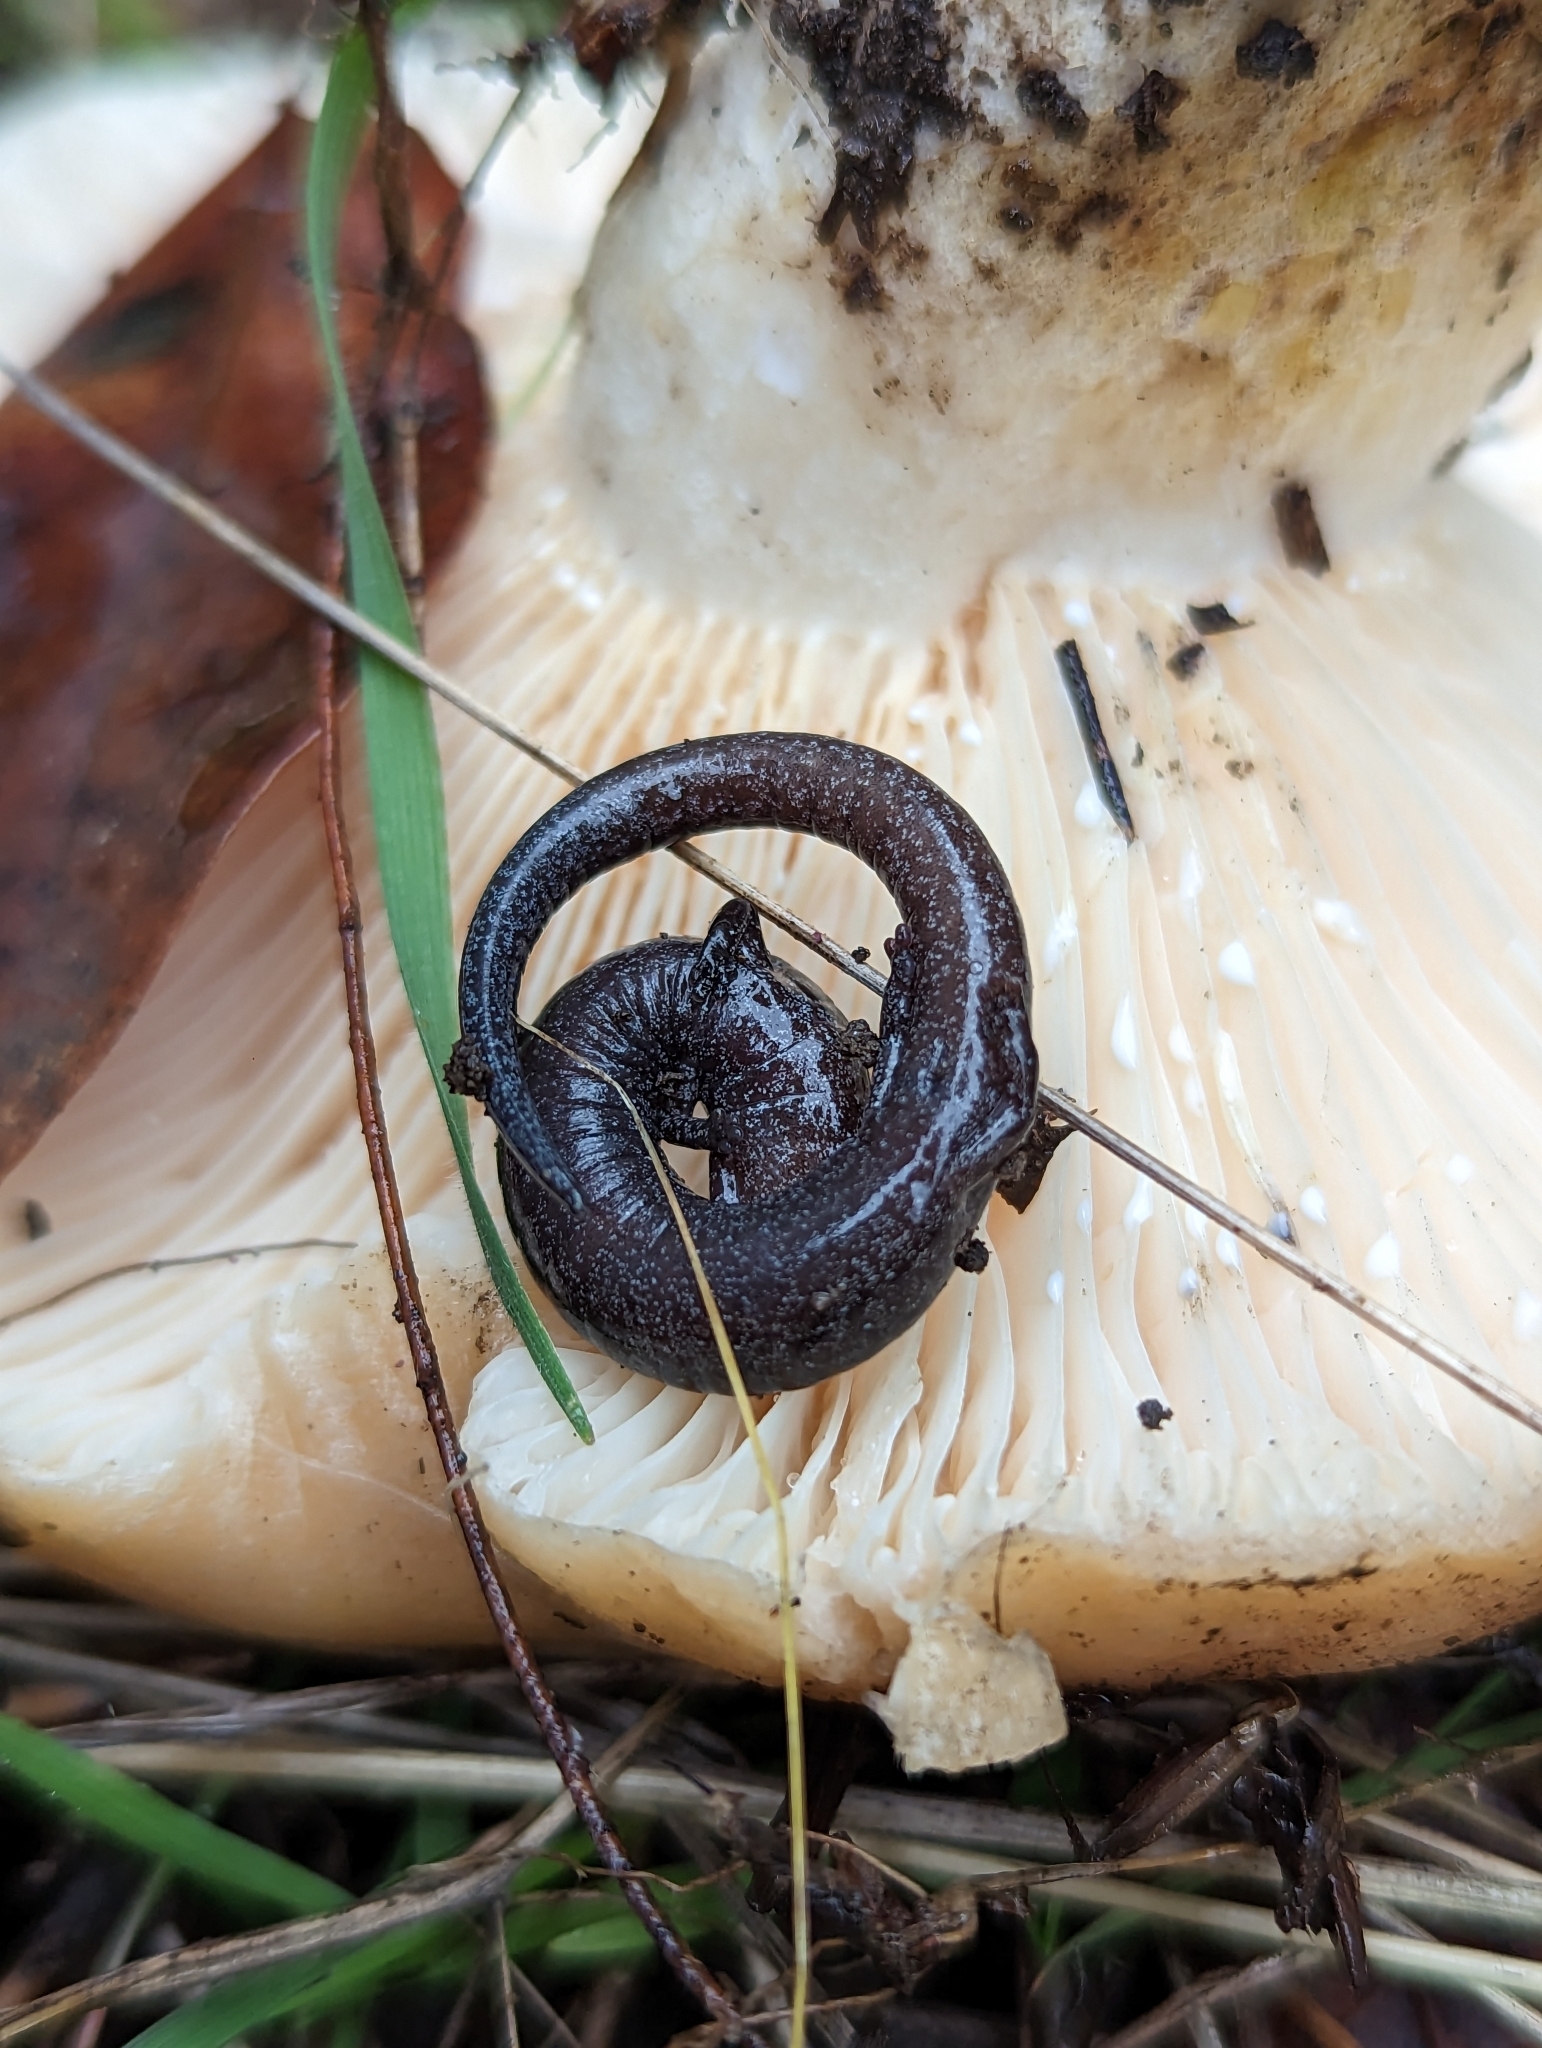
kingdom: Animalia
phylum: Chordata
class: Amphibia
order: Caudata
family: Plethodontidae
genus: Batrachoseps
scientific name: Batrachoseps attenuatus
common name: California slender salamander
